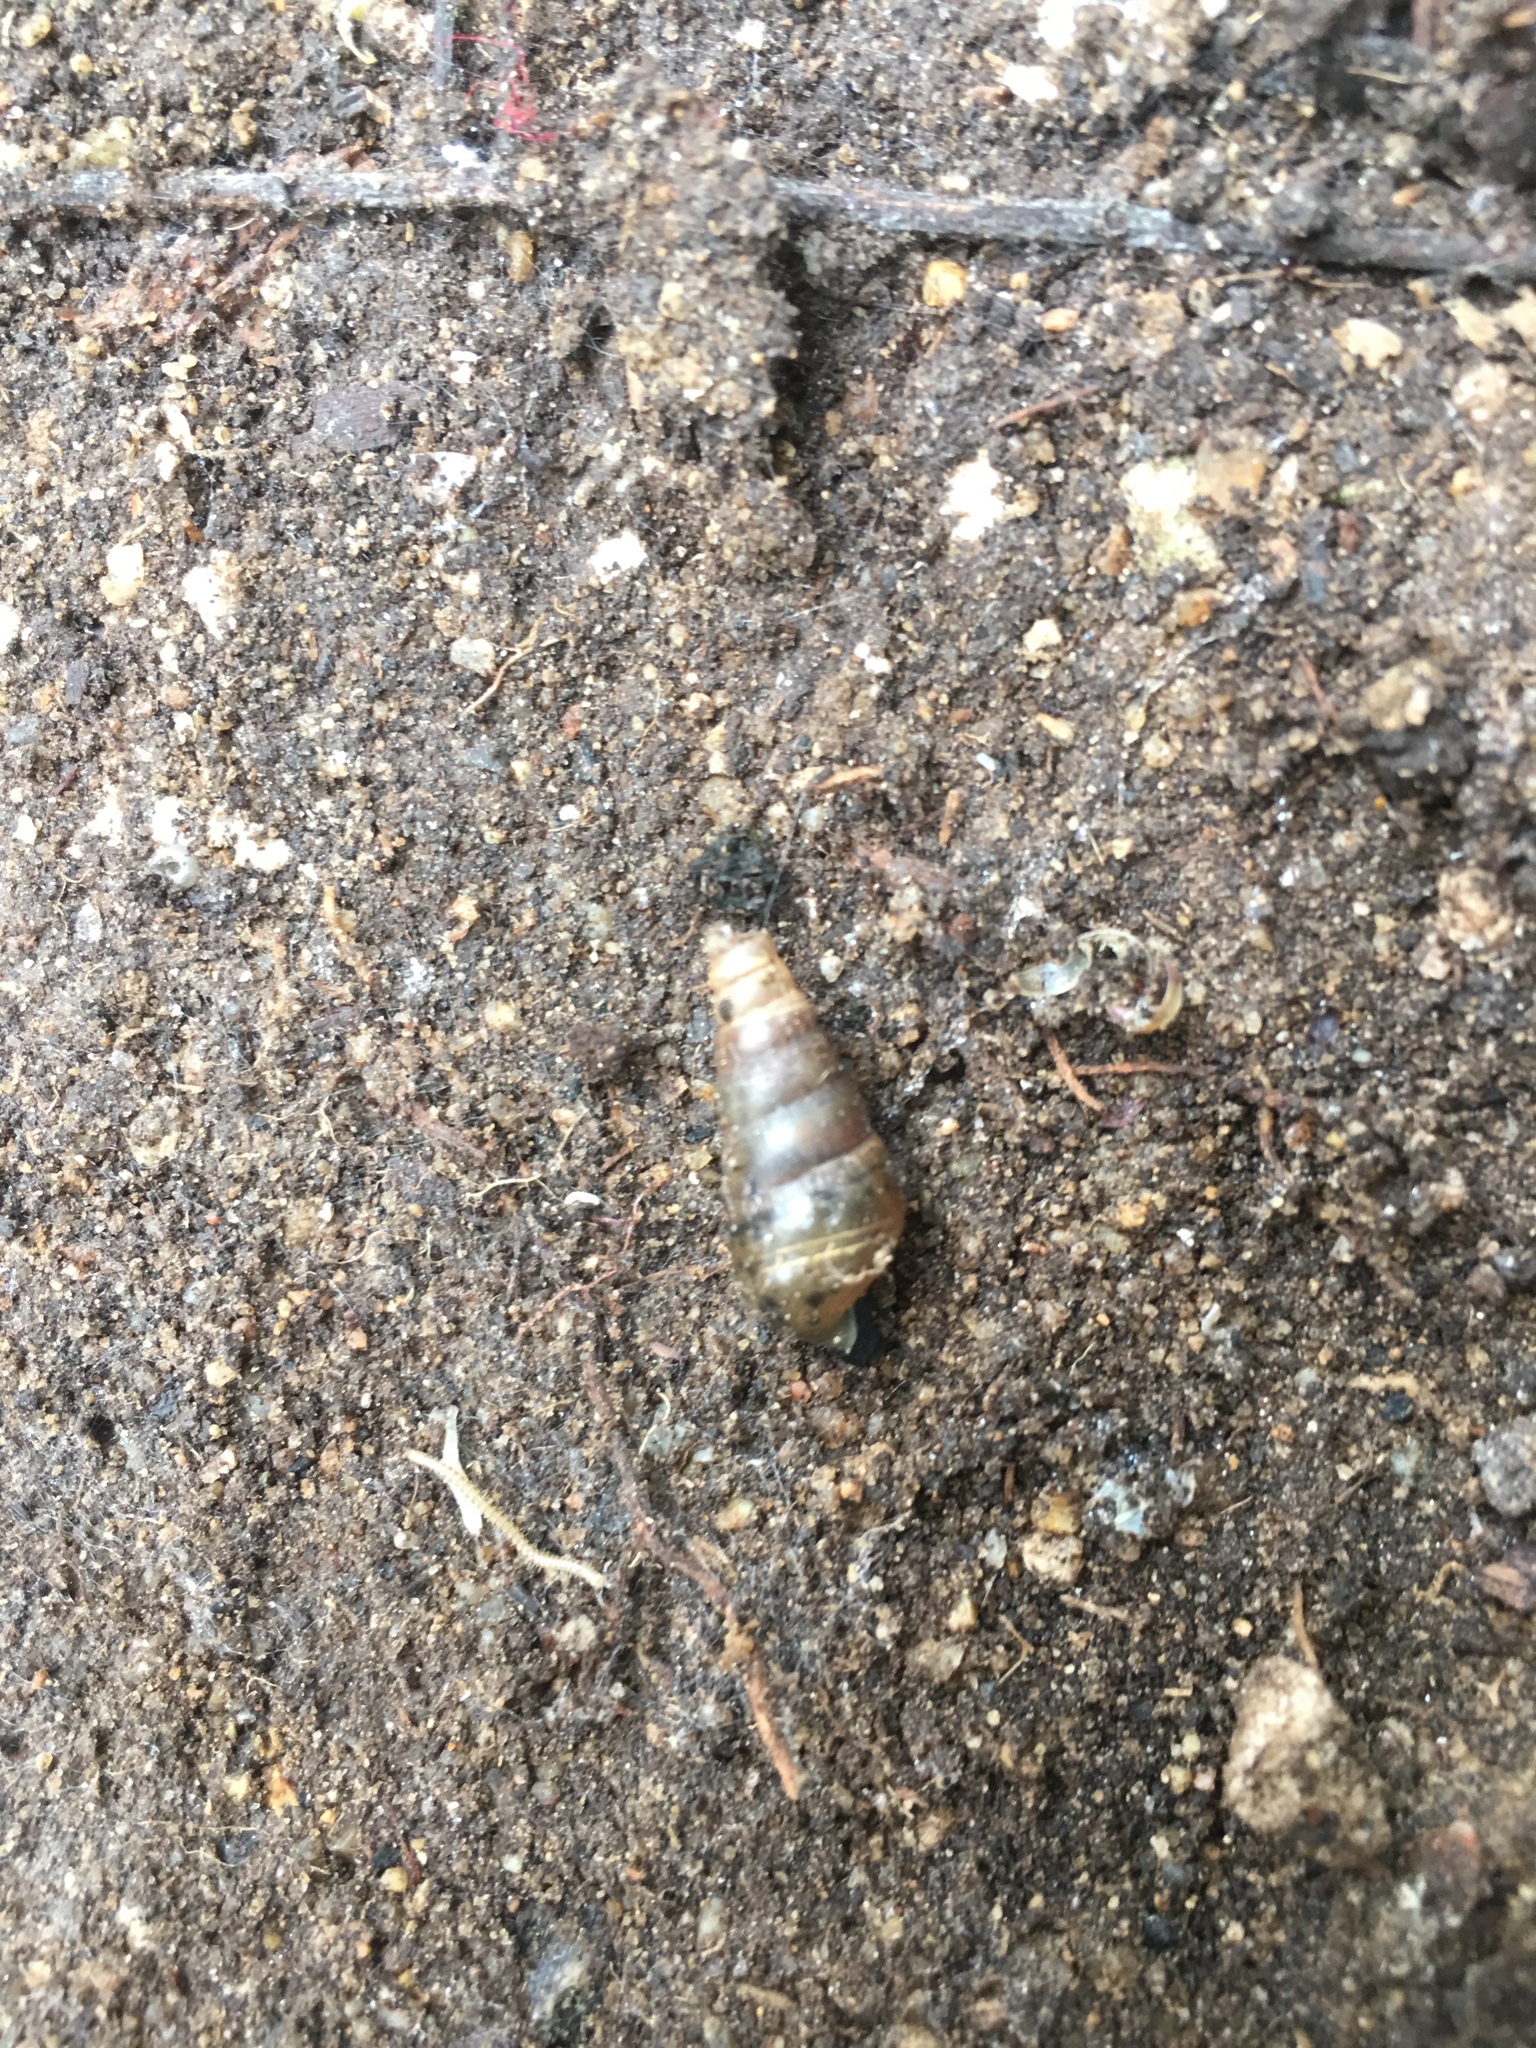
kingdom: Animalia
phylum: Mollusca
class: Gastropoda
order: Stylommatophora
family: Achatinidae
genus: Rumina
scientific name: Rumina decollata
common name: Decollate snail
